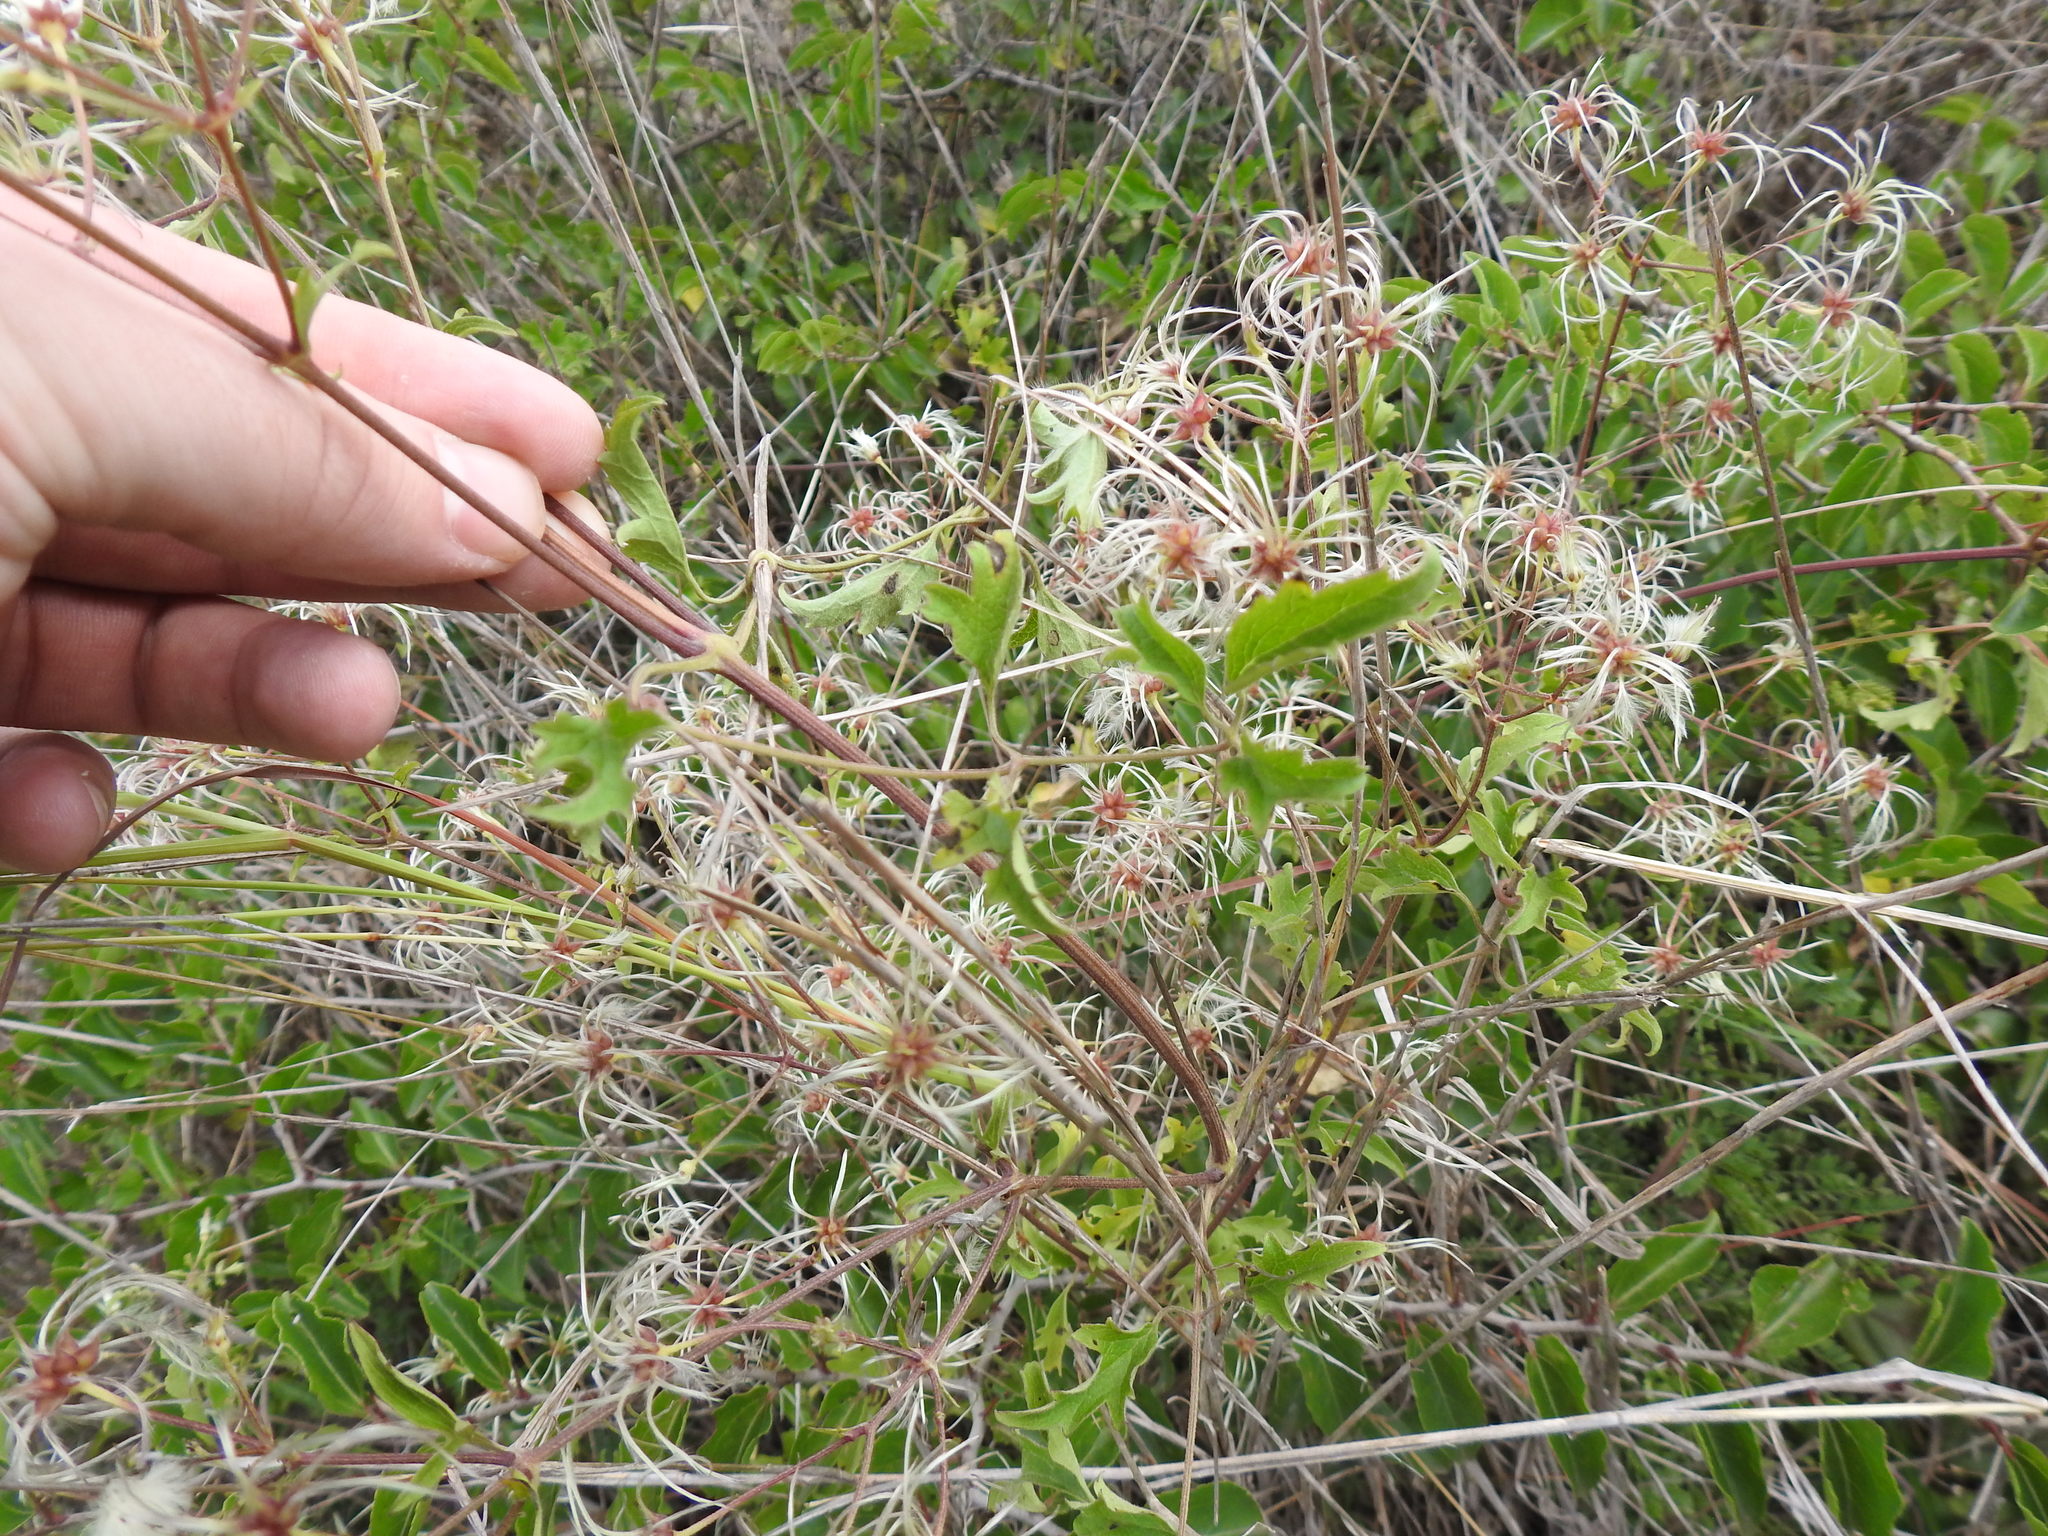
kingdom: Plantae
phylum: Tracheophyta
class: Magnoliopsida
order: Ranunculales
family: Ranunculaceae
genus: Clematis
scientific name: Clematis brachiata
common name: Traveler's-joy
